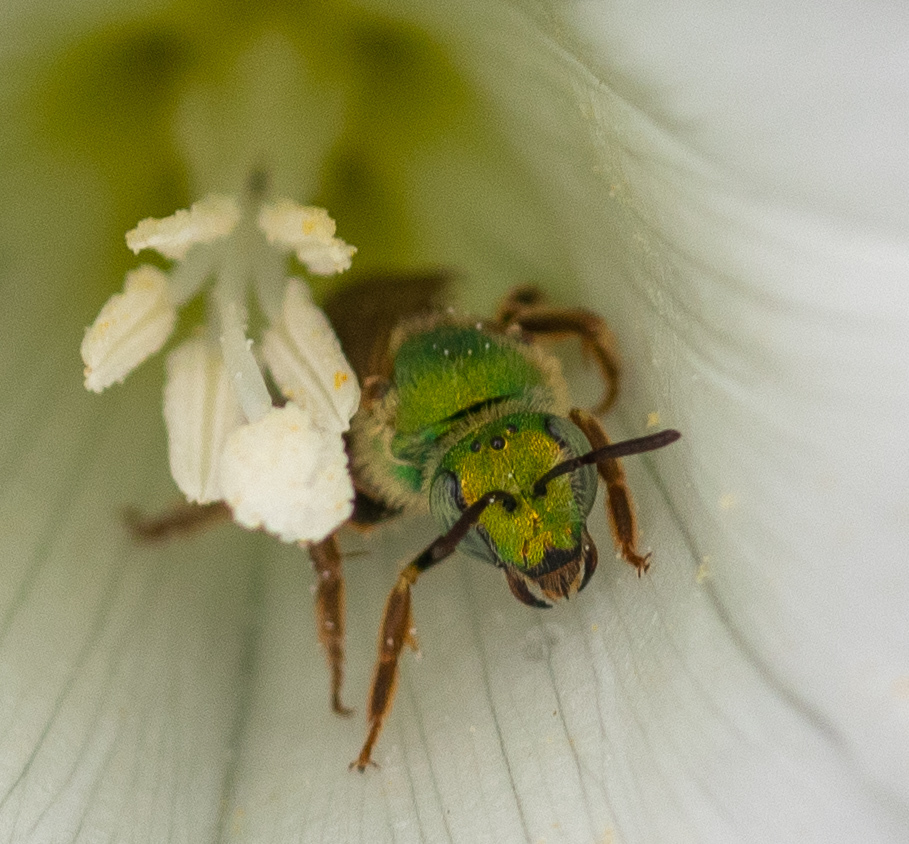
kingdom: Animalia
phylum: Arthropoda
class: Insecta
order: Hymenoptera
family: Halictidae
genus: Agapostemon
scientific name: Agapostemon virescens
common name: Bicolored striped sweat bee
